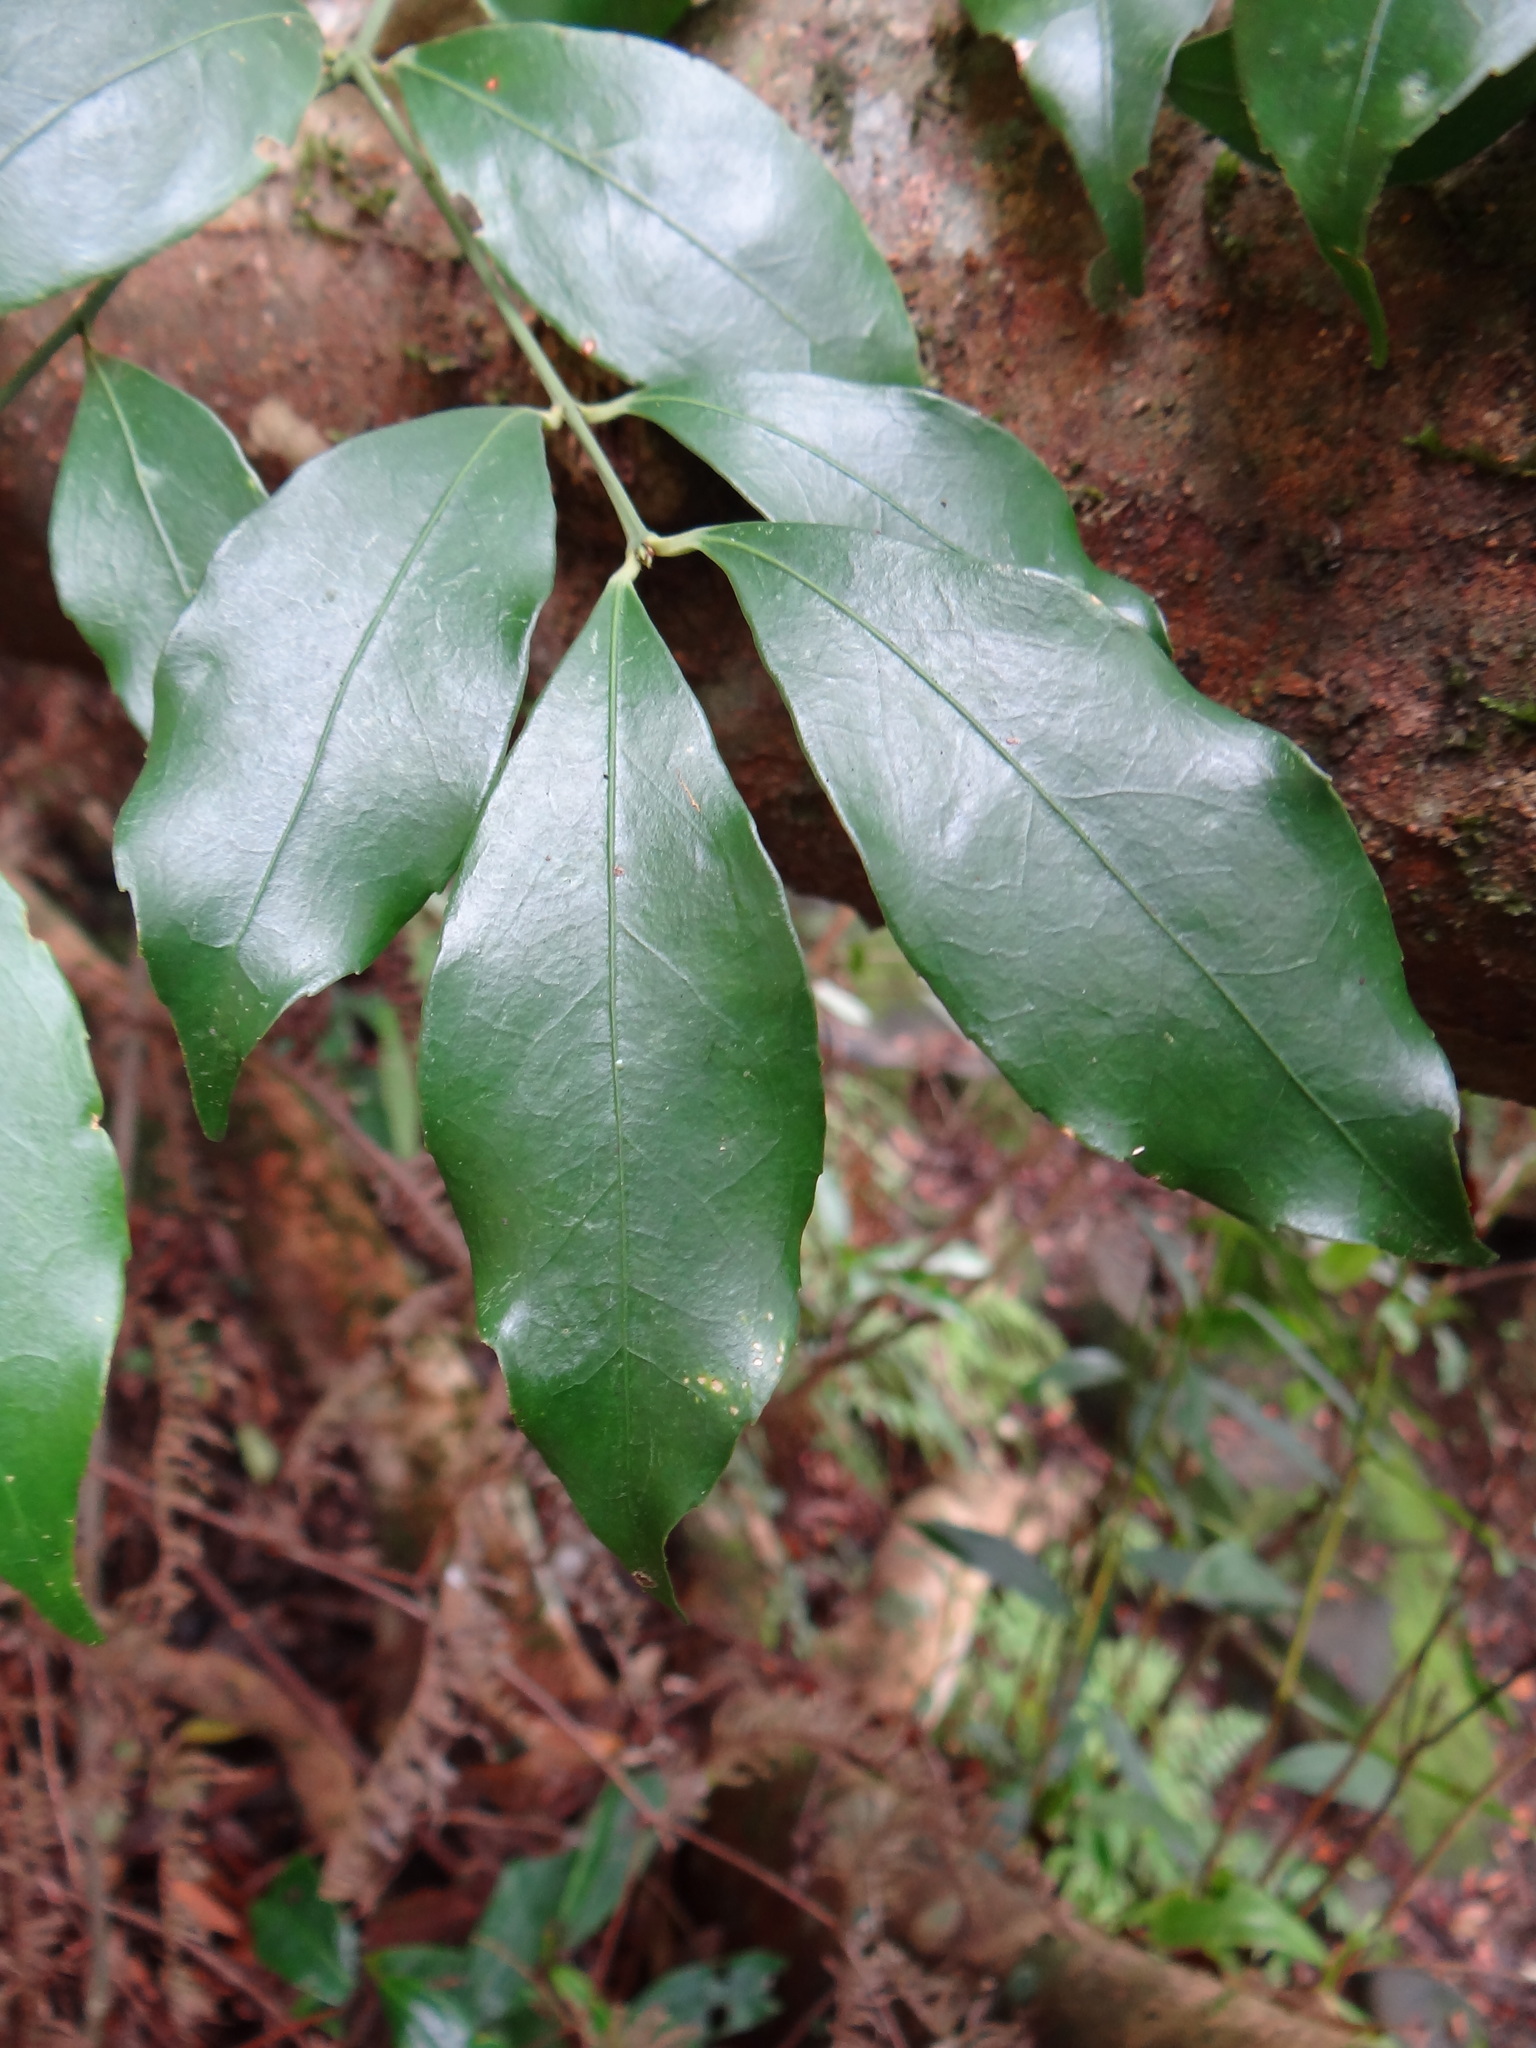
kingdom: Plantae
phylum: Tracheophyta
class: Magnoliopsida
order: Celastrales
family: Celastraceae
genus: Euonymus
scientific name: Euonymus laxiflorus
